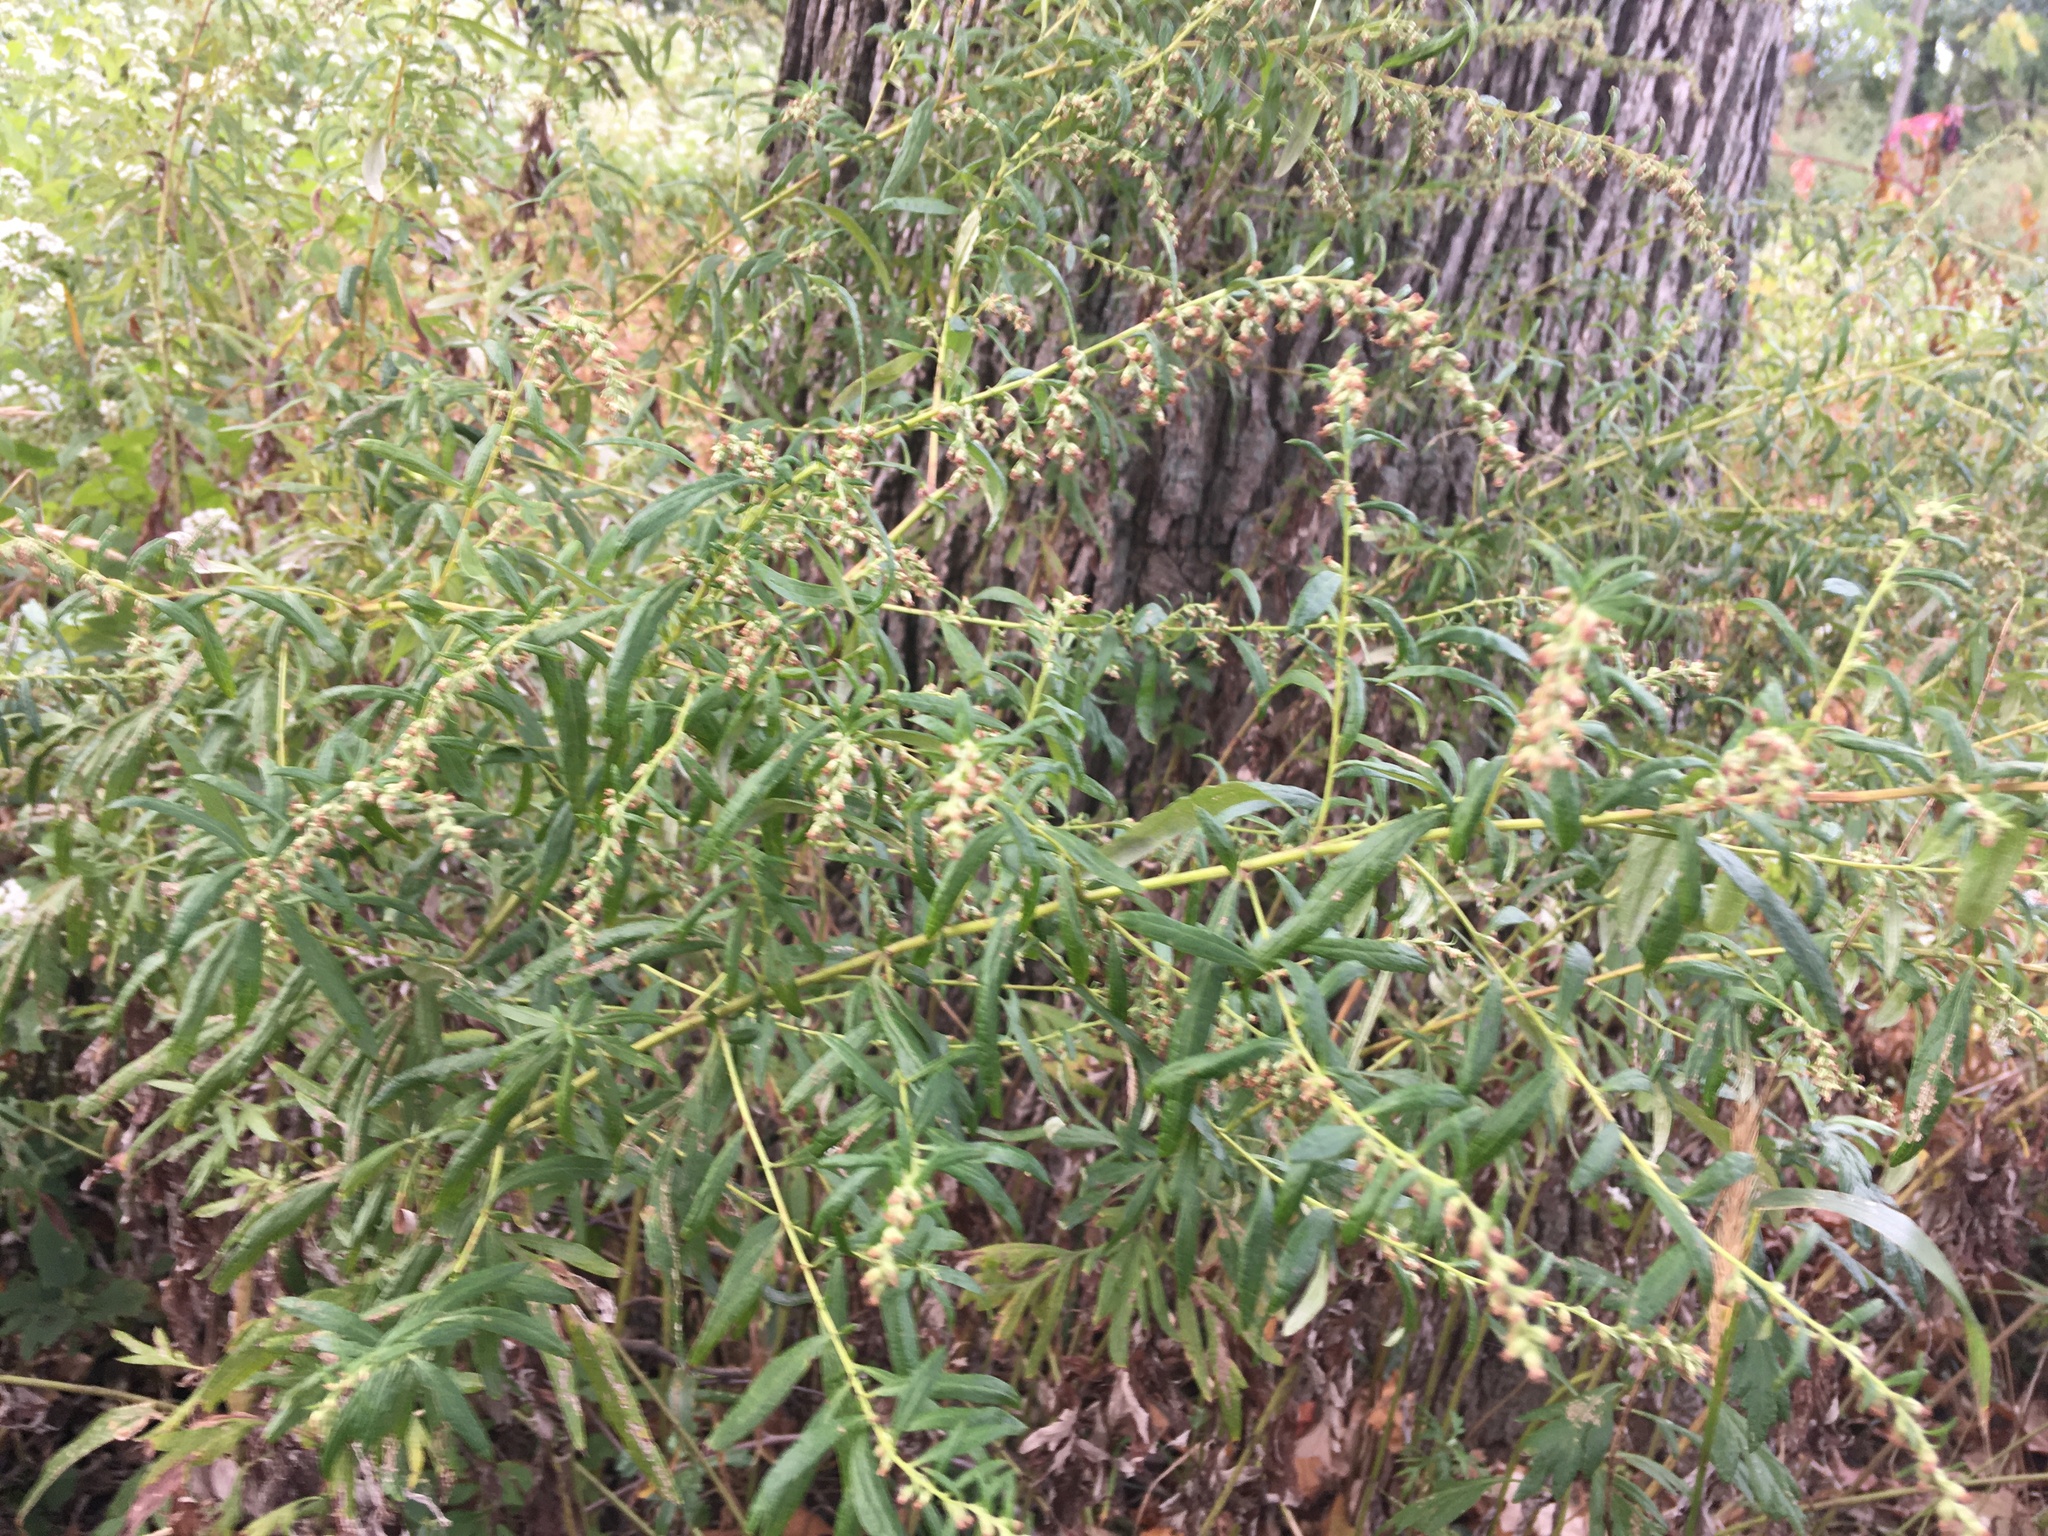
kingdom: Plantae
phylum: Tracheophyta
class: Magnoliopsida
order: Asterales
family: Asteraceae
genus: Artemisia
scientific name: Artemisia vulgaris
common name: Mugwort
